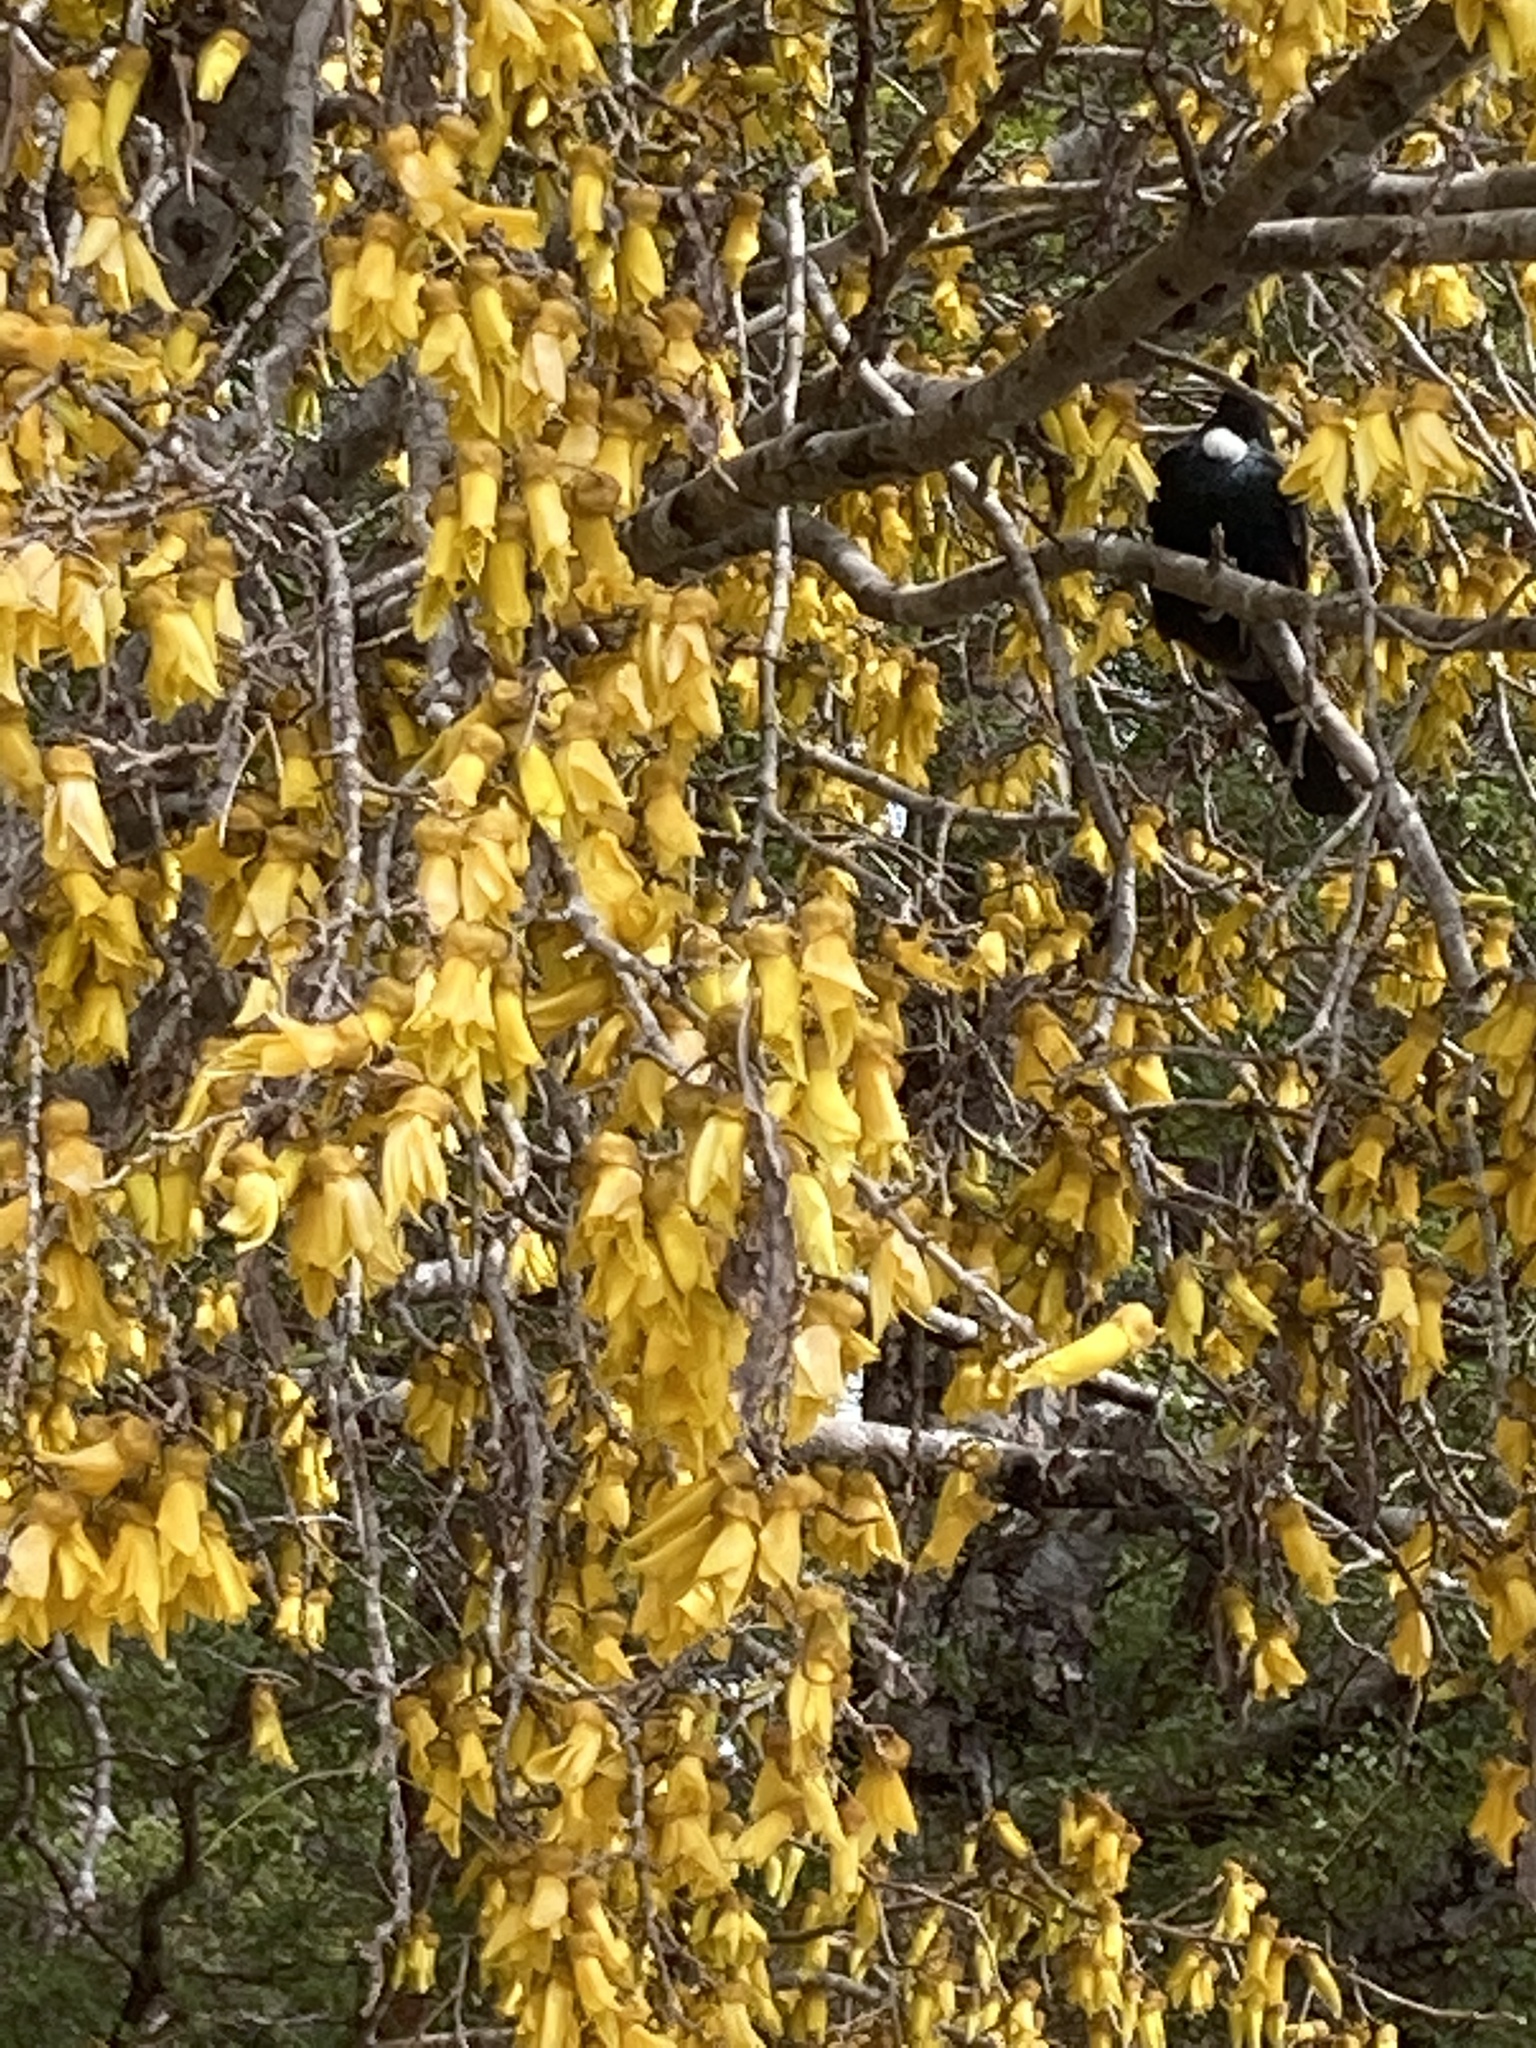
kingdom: Animalia
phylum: Chordata
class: Aves
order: Passeriformes
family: Meliphagidae
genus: Prosthemadera
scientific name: Prosthemadera novaeseelandiae
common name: Tui
